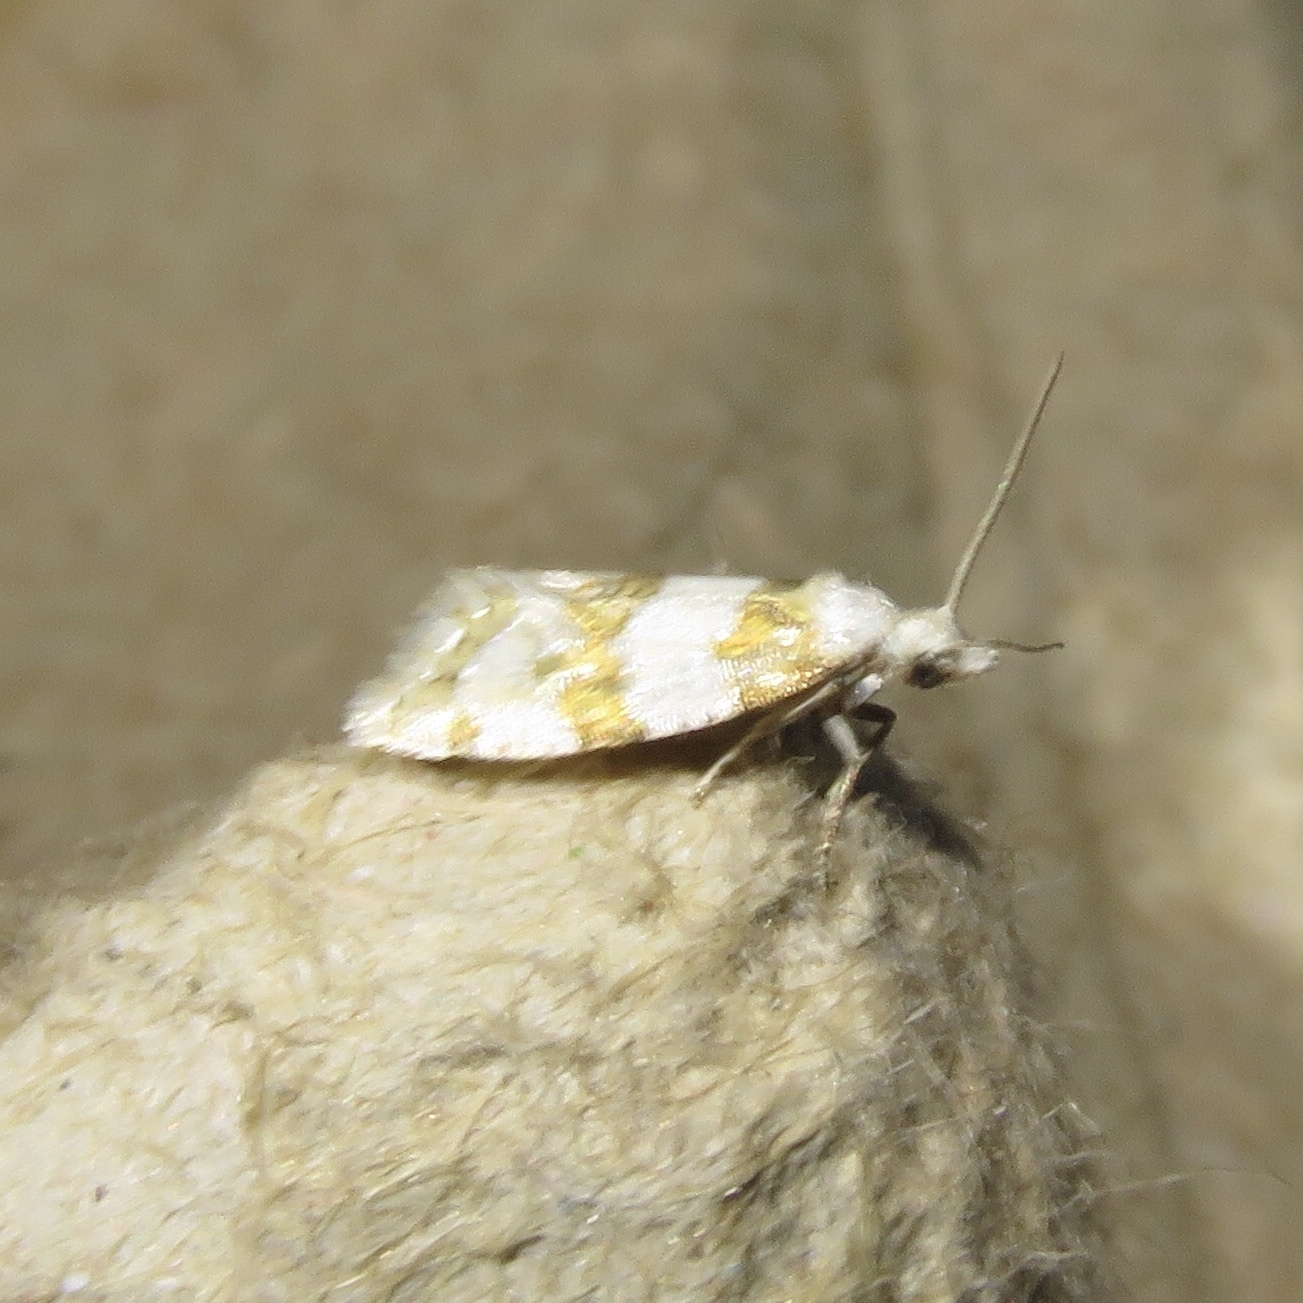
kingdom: Animalia
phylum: Arthropoda
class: Insecta
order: Lepidoptera
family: Tortricidae
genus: Aethes
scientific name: Aethes argentilimitana
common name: Silver-bordered aethes
